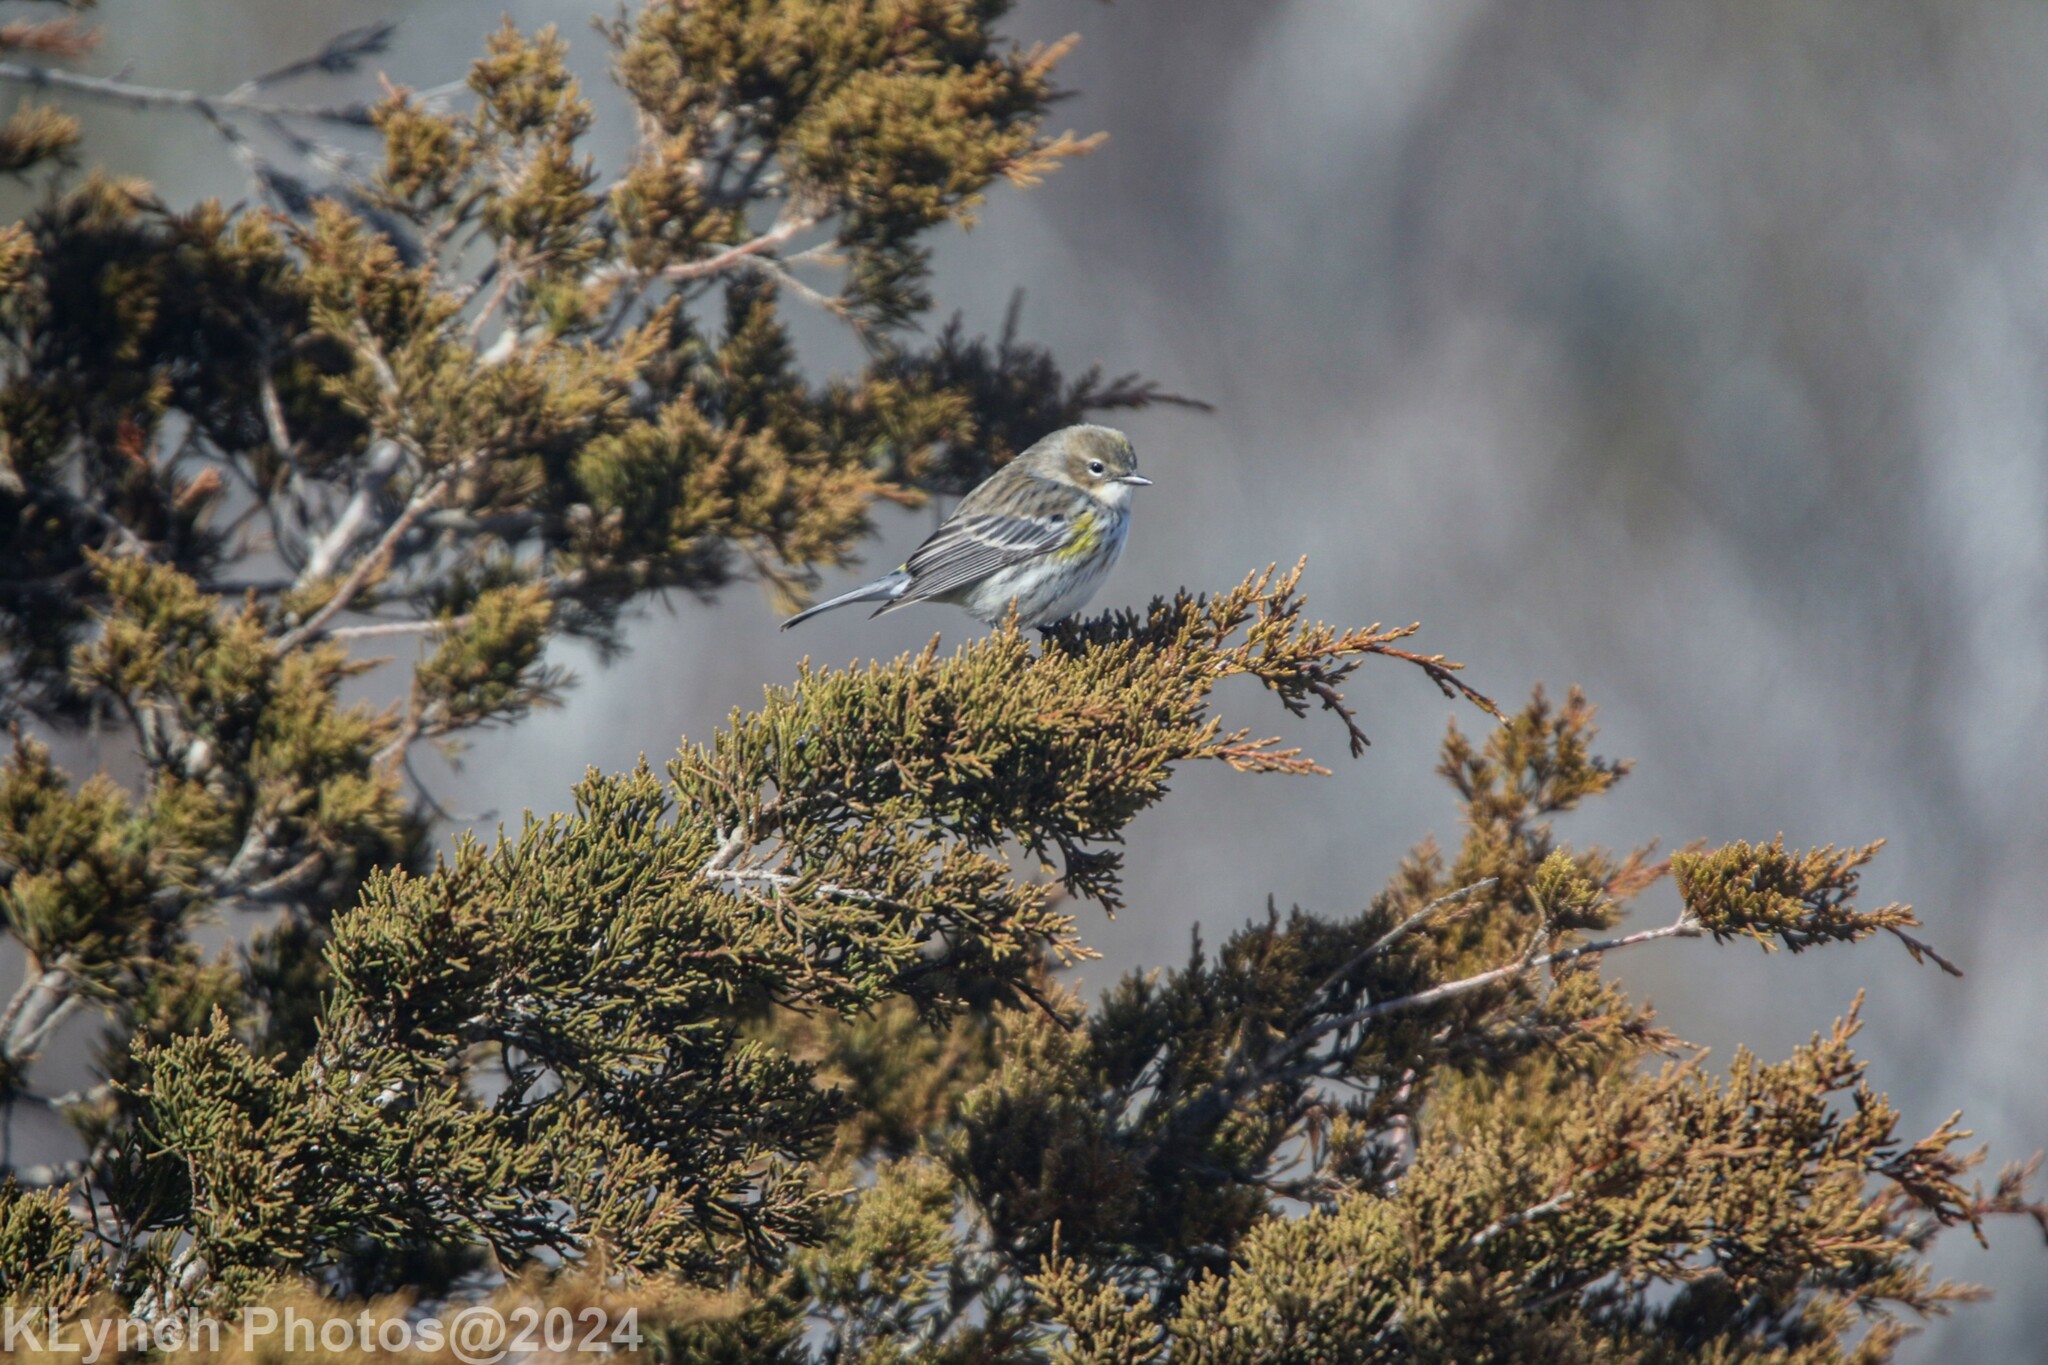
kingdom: Animalia
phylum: Chordata
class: Aves
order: Passeriformes
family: Parulidae
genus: Setophaga
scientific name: Setophaga coronata
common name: Myrtle warbler
